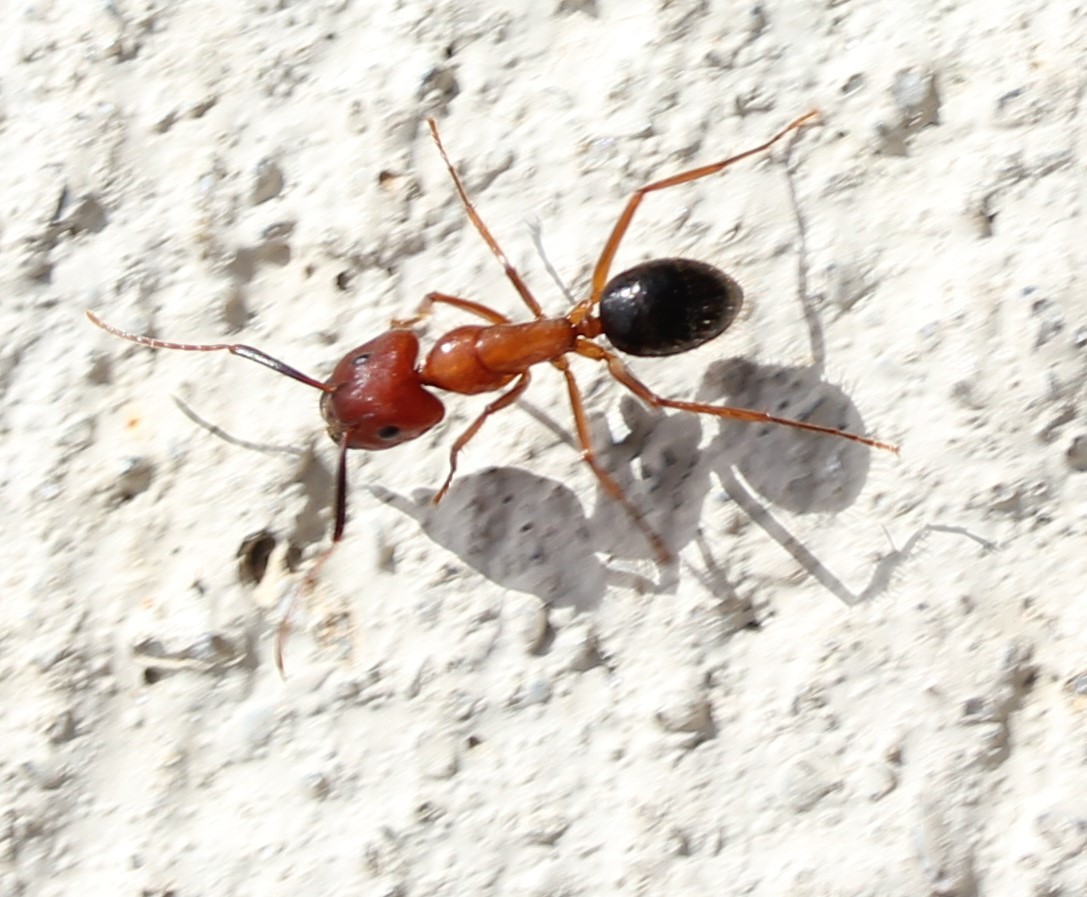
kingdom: Animalia
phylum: Arthropoda
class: Insecta
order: Hymenoptera
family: Formicidae
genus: Camponotus
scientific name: Camponotus floridanus
